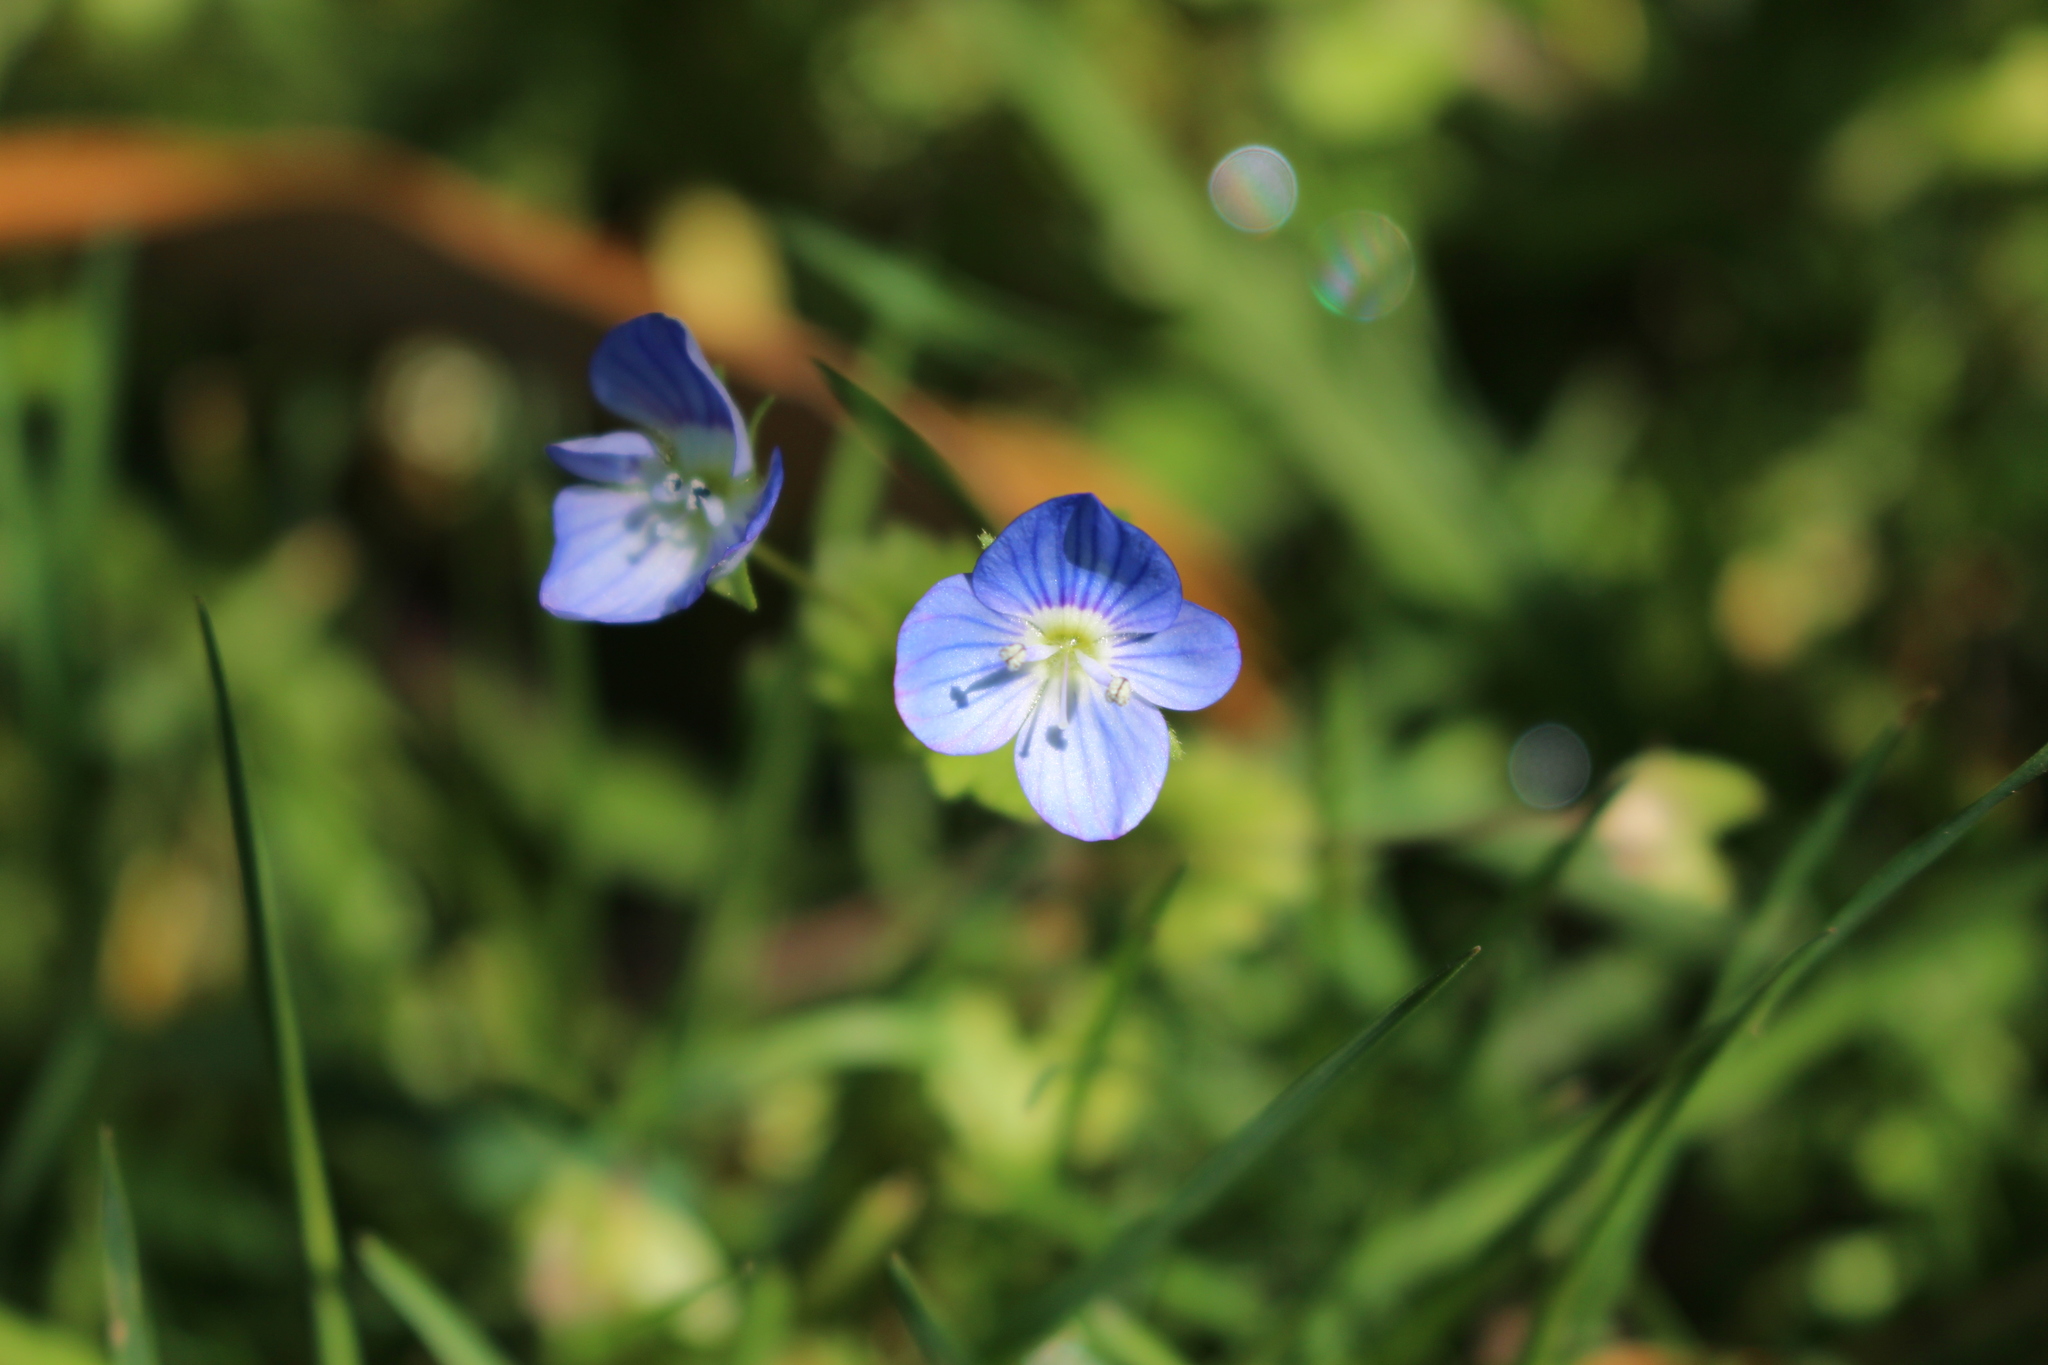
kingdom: Plantae
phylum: Tracheophyta
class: Magnoliopsida
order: Lamiales
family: Plantaginaceae
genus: Veronica
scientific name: Veronica persica
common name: Common field-speedwell
